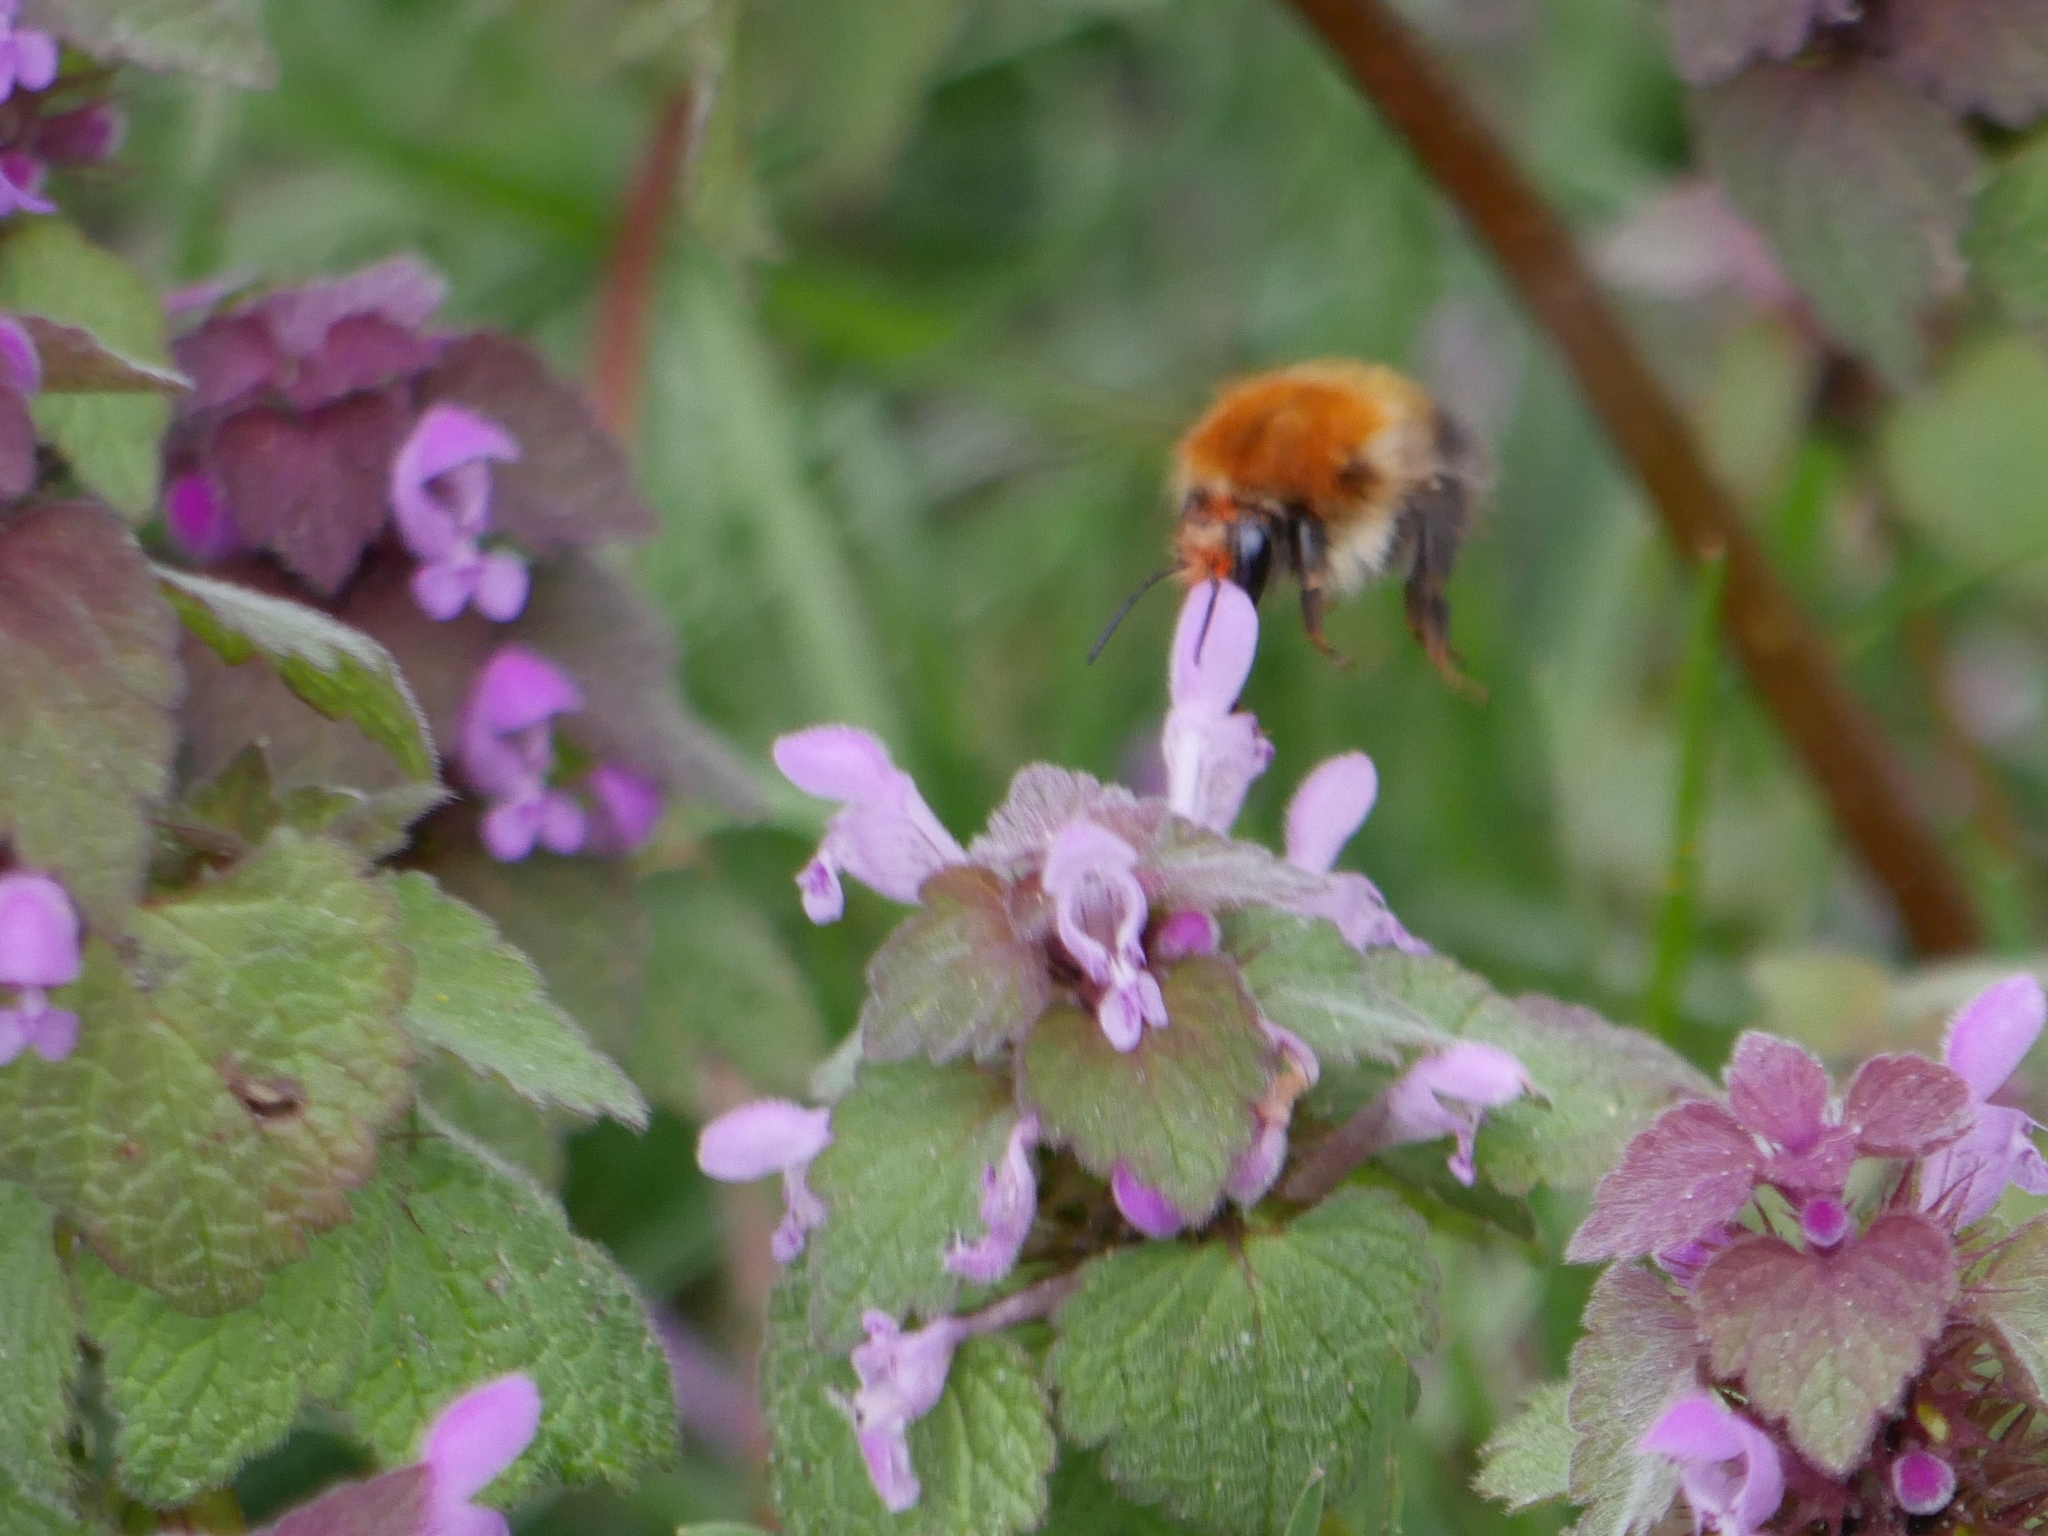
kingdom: Animalia
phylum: Arthropoda
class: Insecta
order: Hymenoptera
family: Apidae
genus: Bombus
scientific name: Bombus pascuorum
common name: Common carder bee
